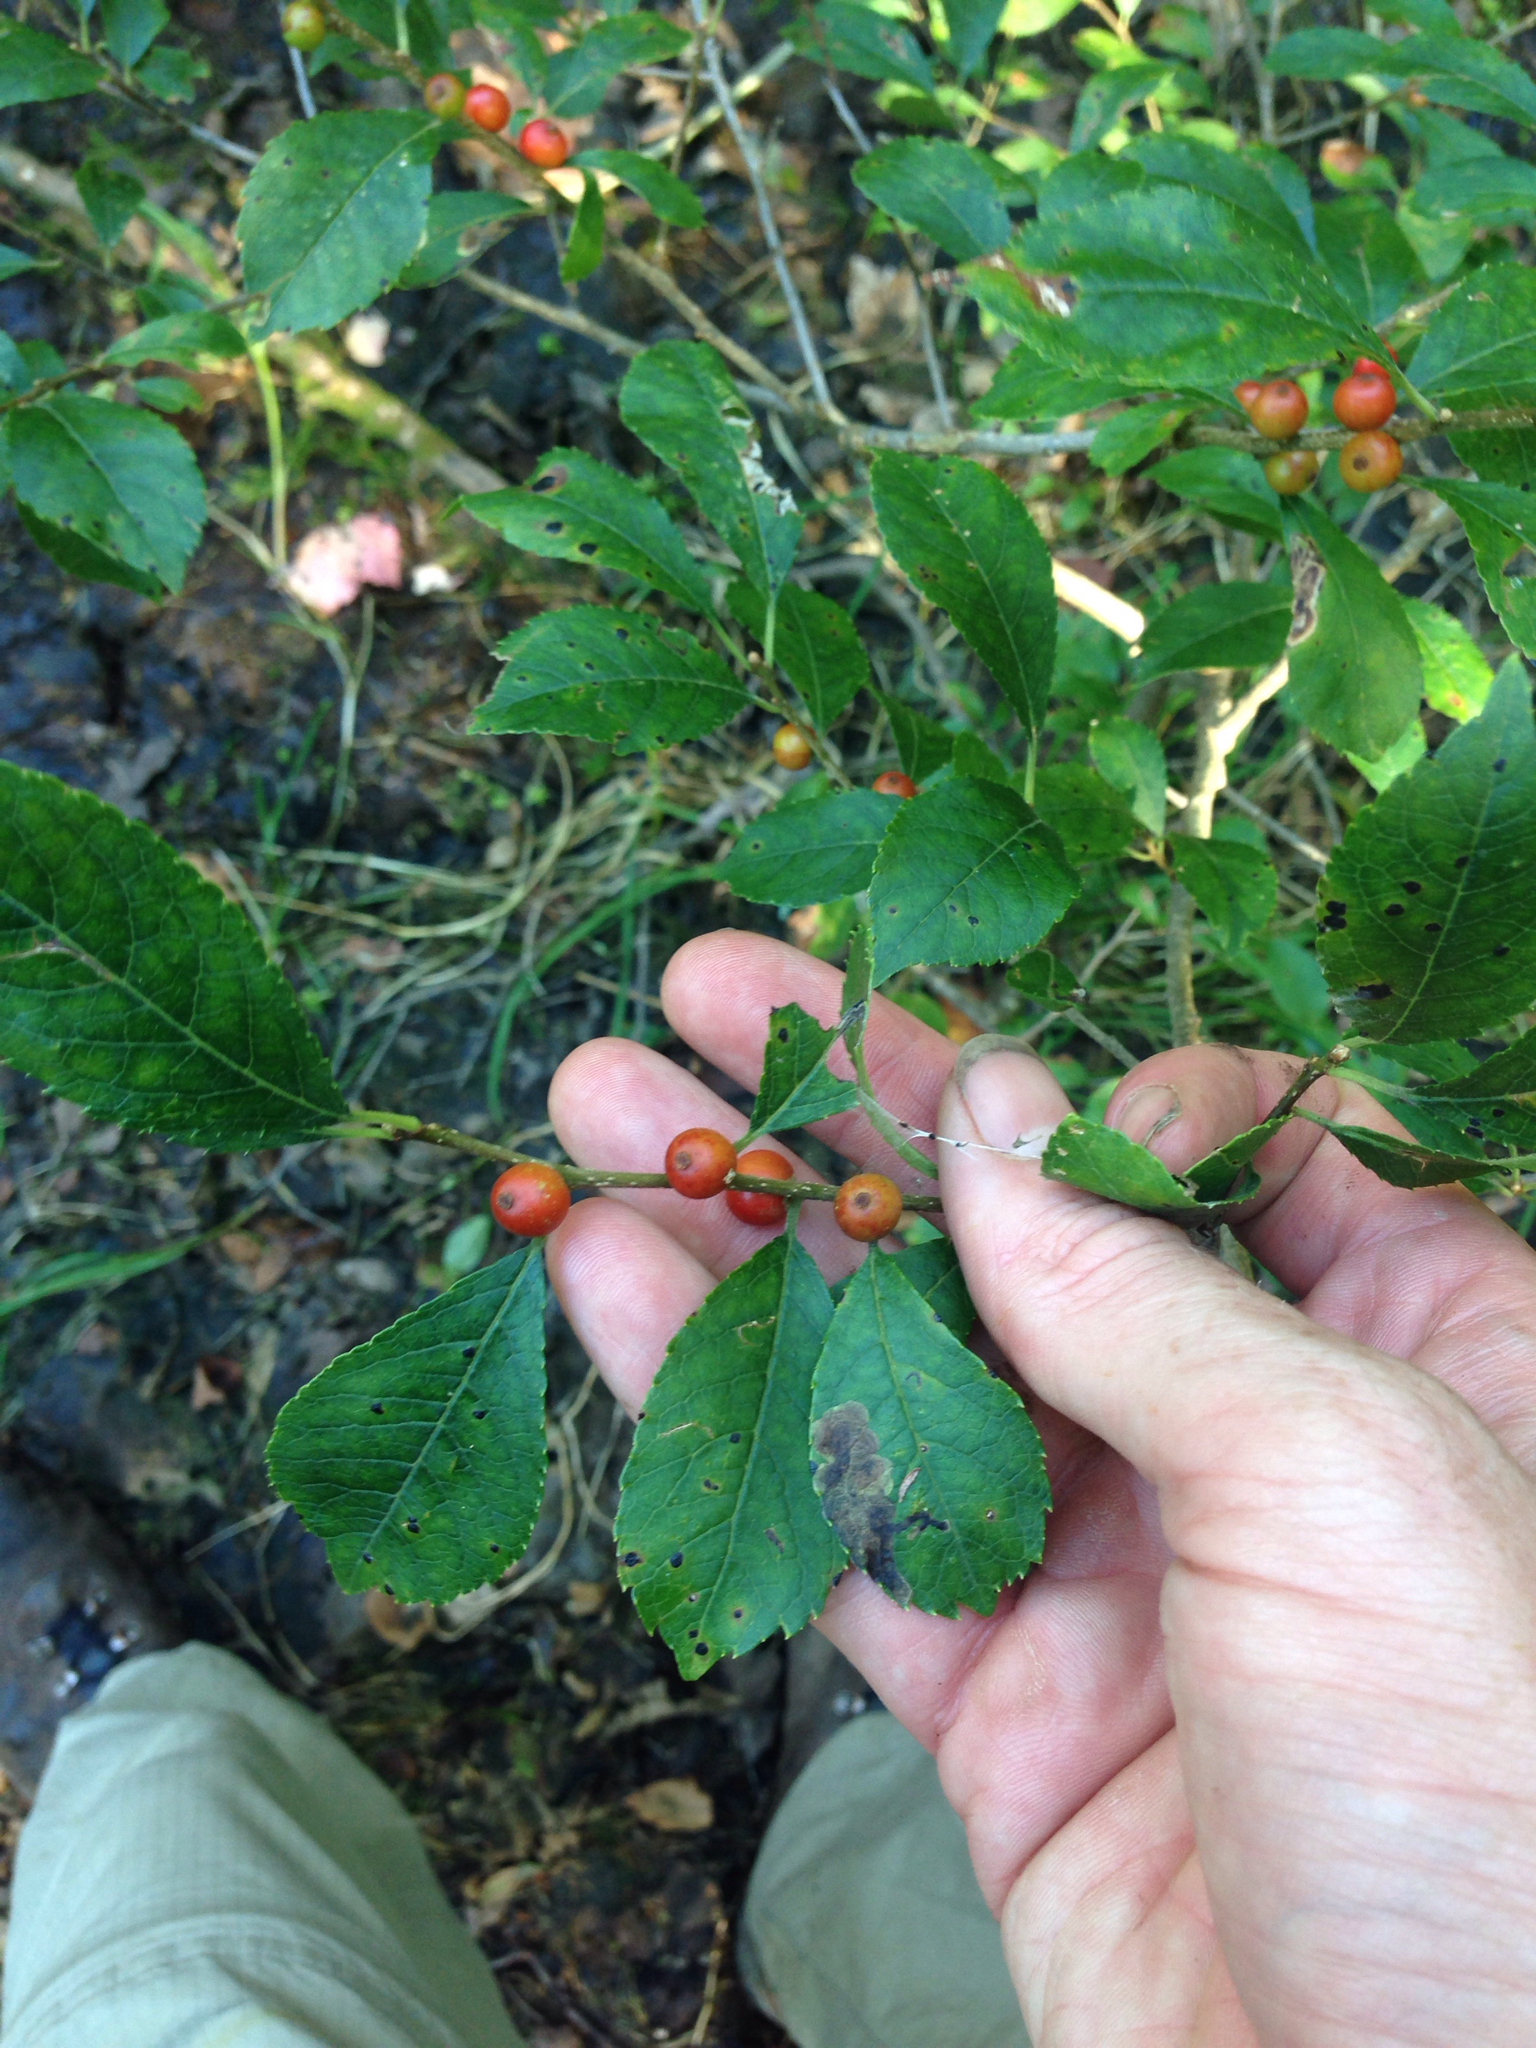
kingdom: Plantae
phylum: Tracheophyta
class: Magnoliopsida
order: Aquifoliales
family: Aquifoliaceae
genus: Ilex
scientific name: Ilex verticillata
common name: Virginia winterberry
